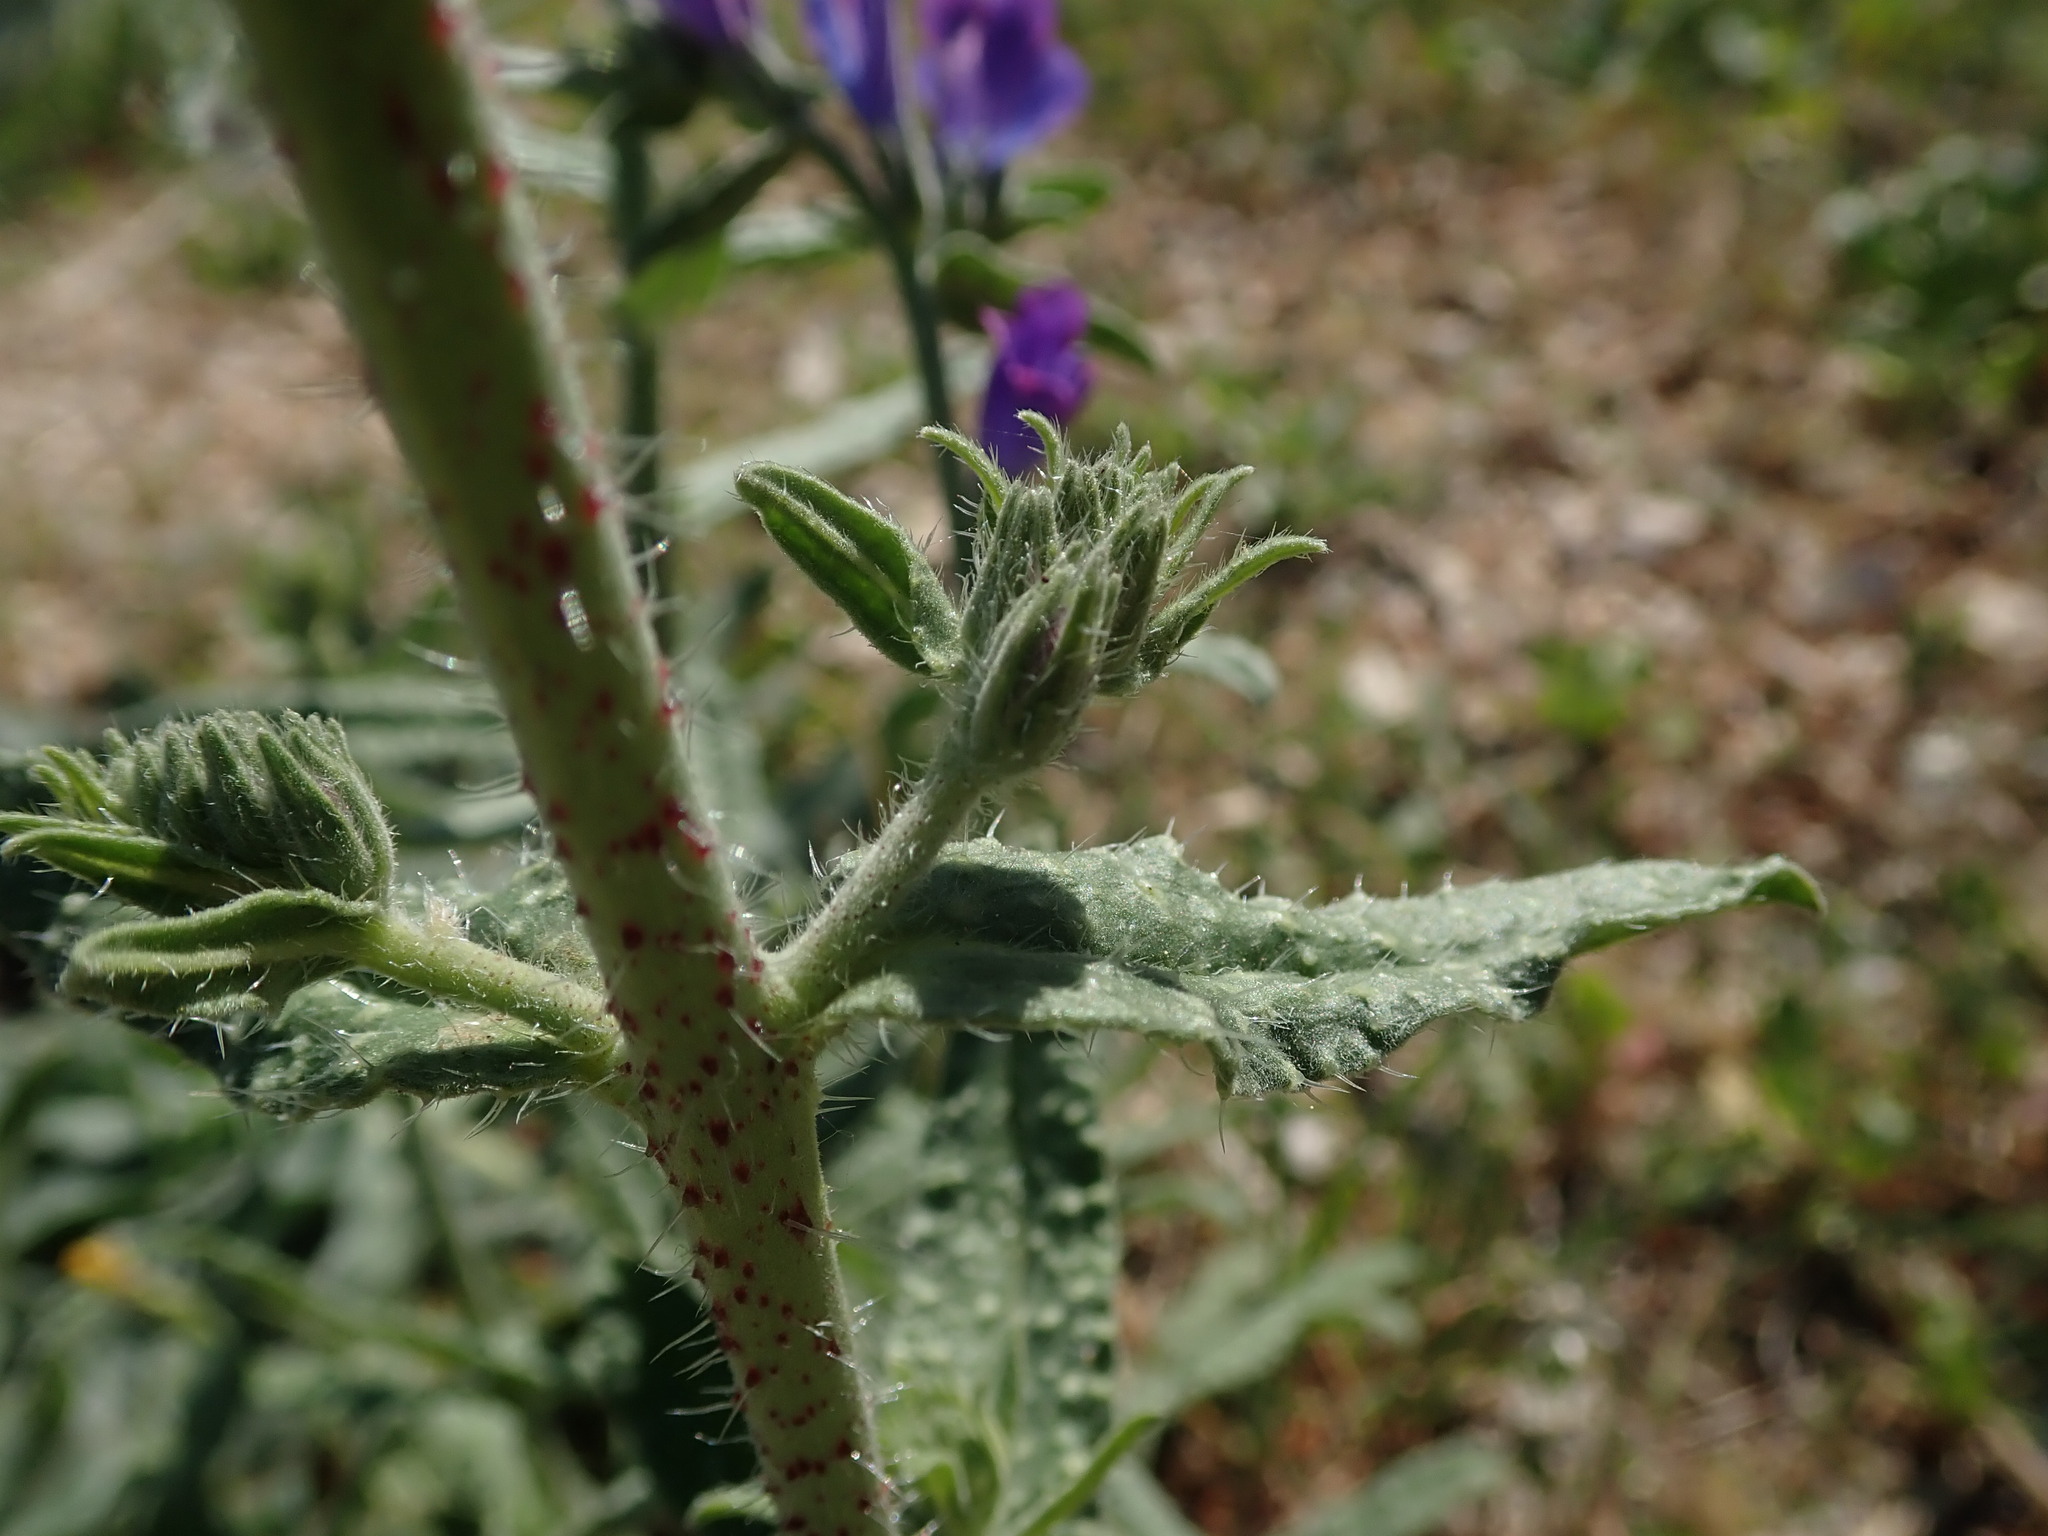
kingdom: Plantae
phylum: Tracheophyta
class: Magnoliopsida
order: Boraginales
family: Boraginaceae
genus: Echium
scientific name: Echium vulgare
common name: Common viper's bugloss
